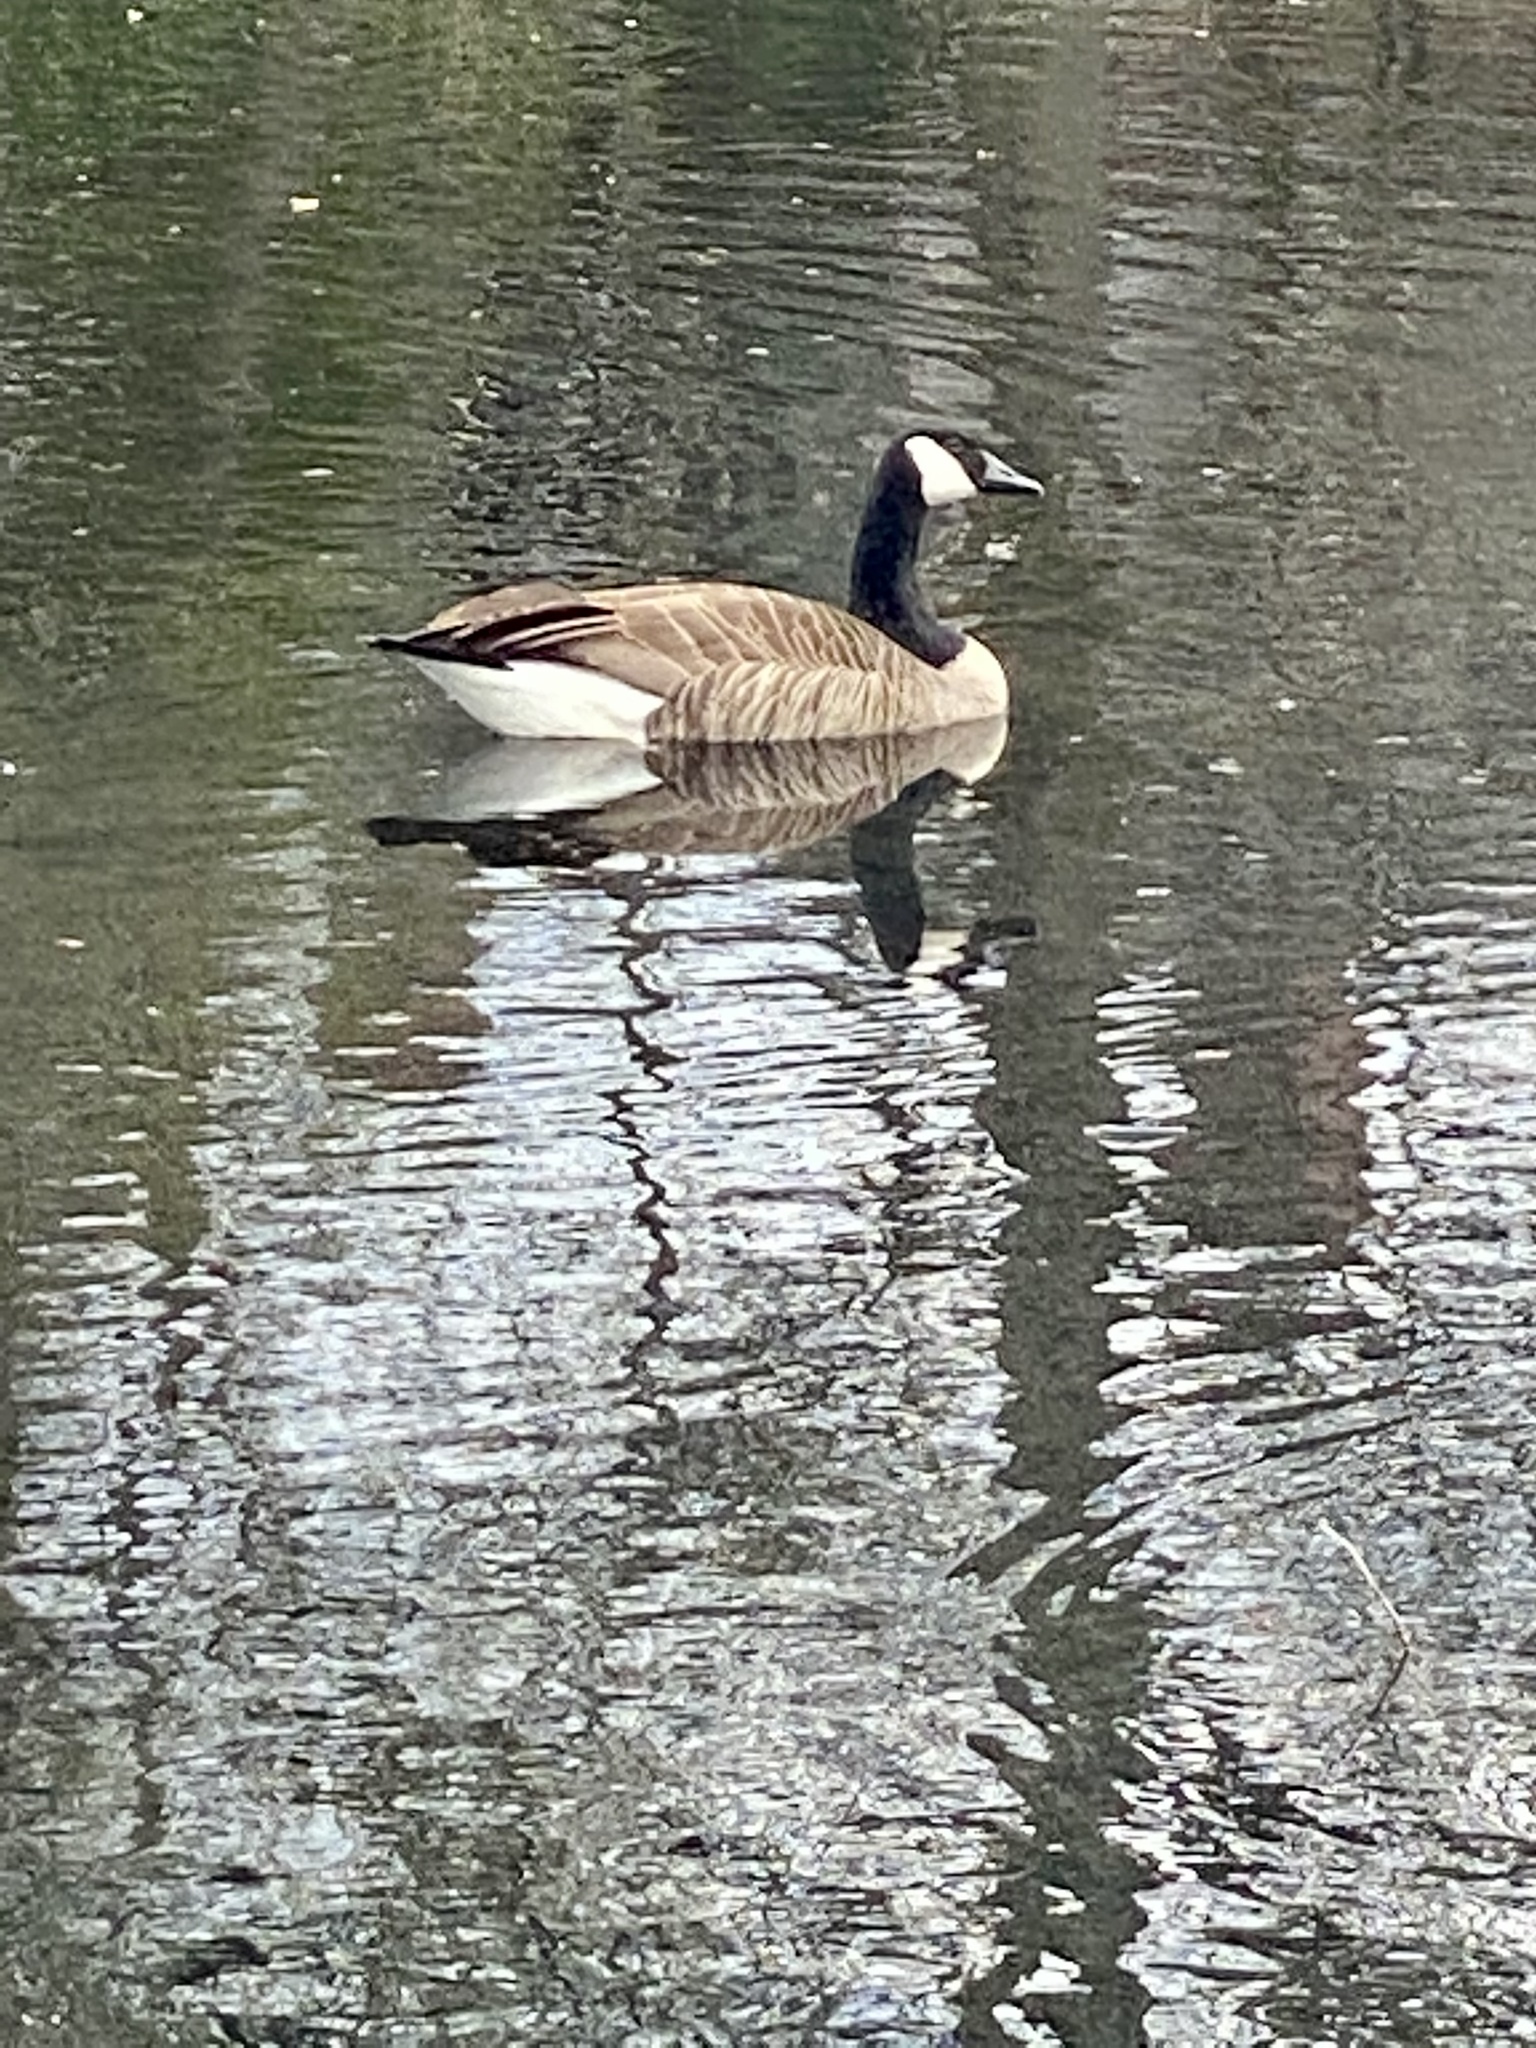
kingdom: Animalia
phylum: Chordata
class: Aves
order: Anseriformes
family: Anatidae
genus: Branta
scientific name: Branta canadensis
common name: Canada goose
